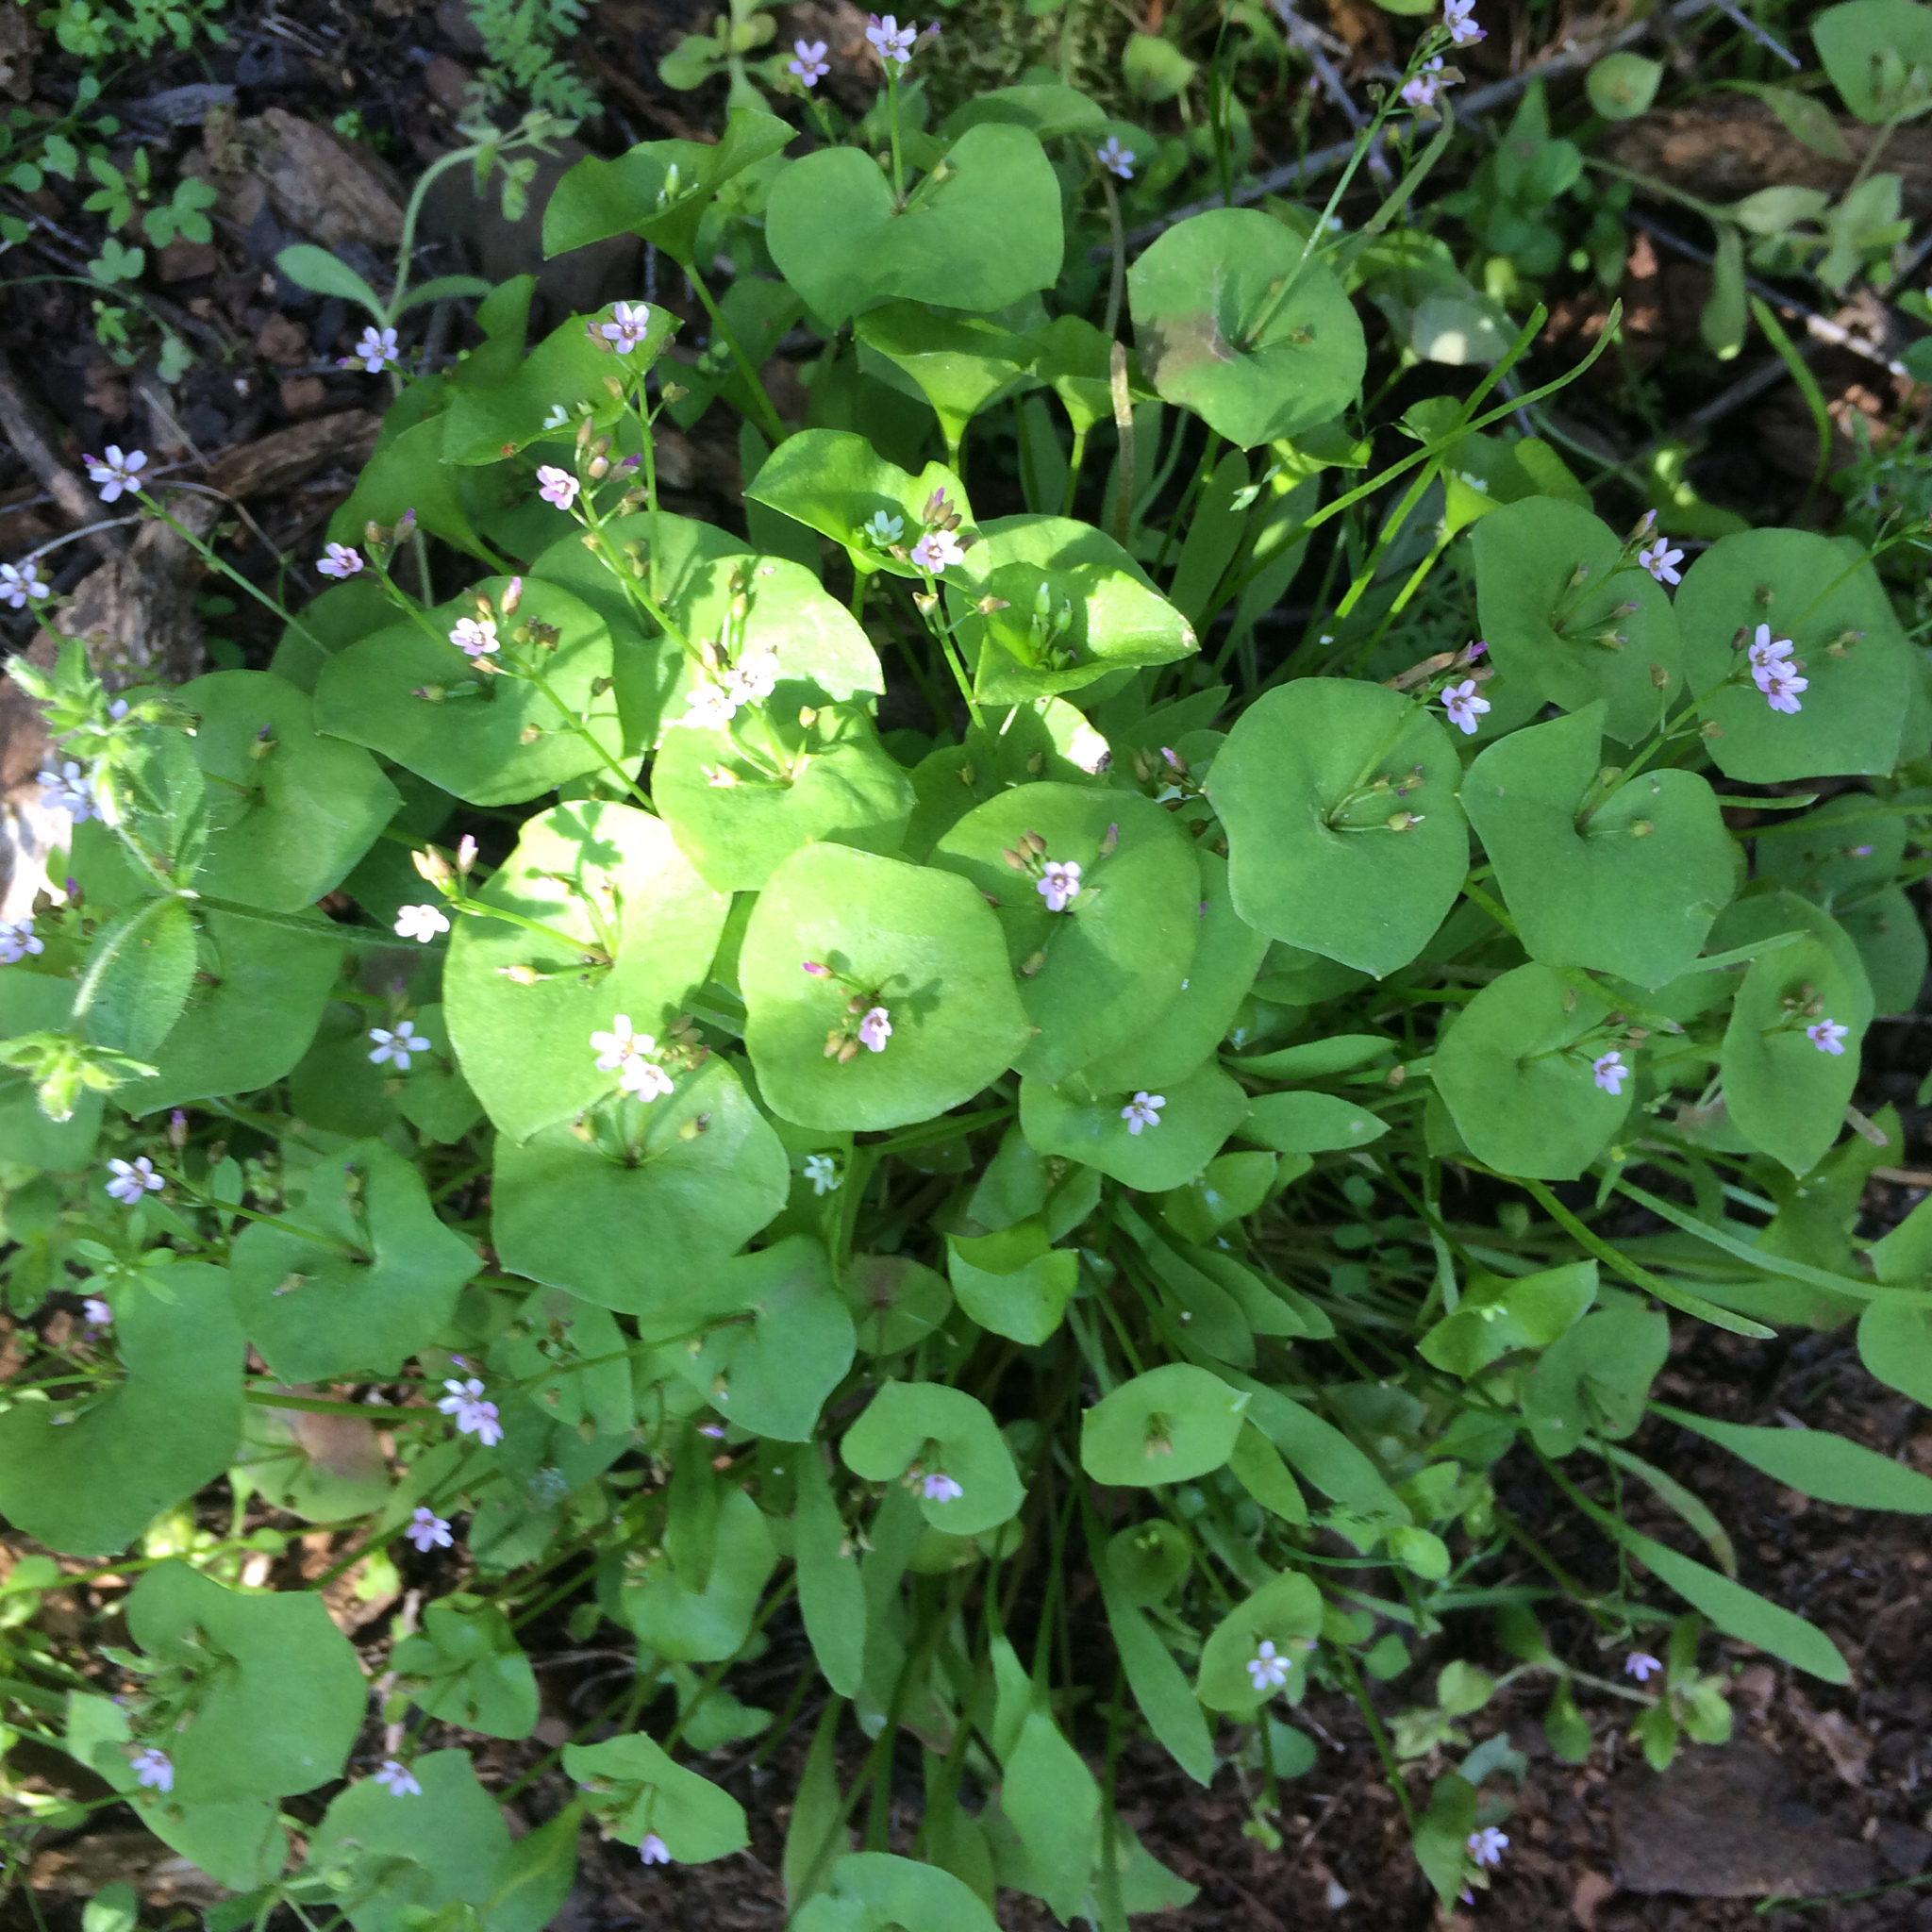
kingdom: Plantae
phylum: Tracheophyta
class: Magnoliopsida
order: Caryophyllales
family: Montiaceae
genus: Claytonia
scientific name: Claytonia perfoliata
